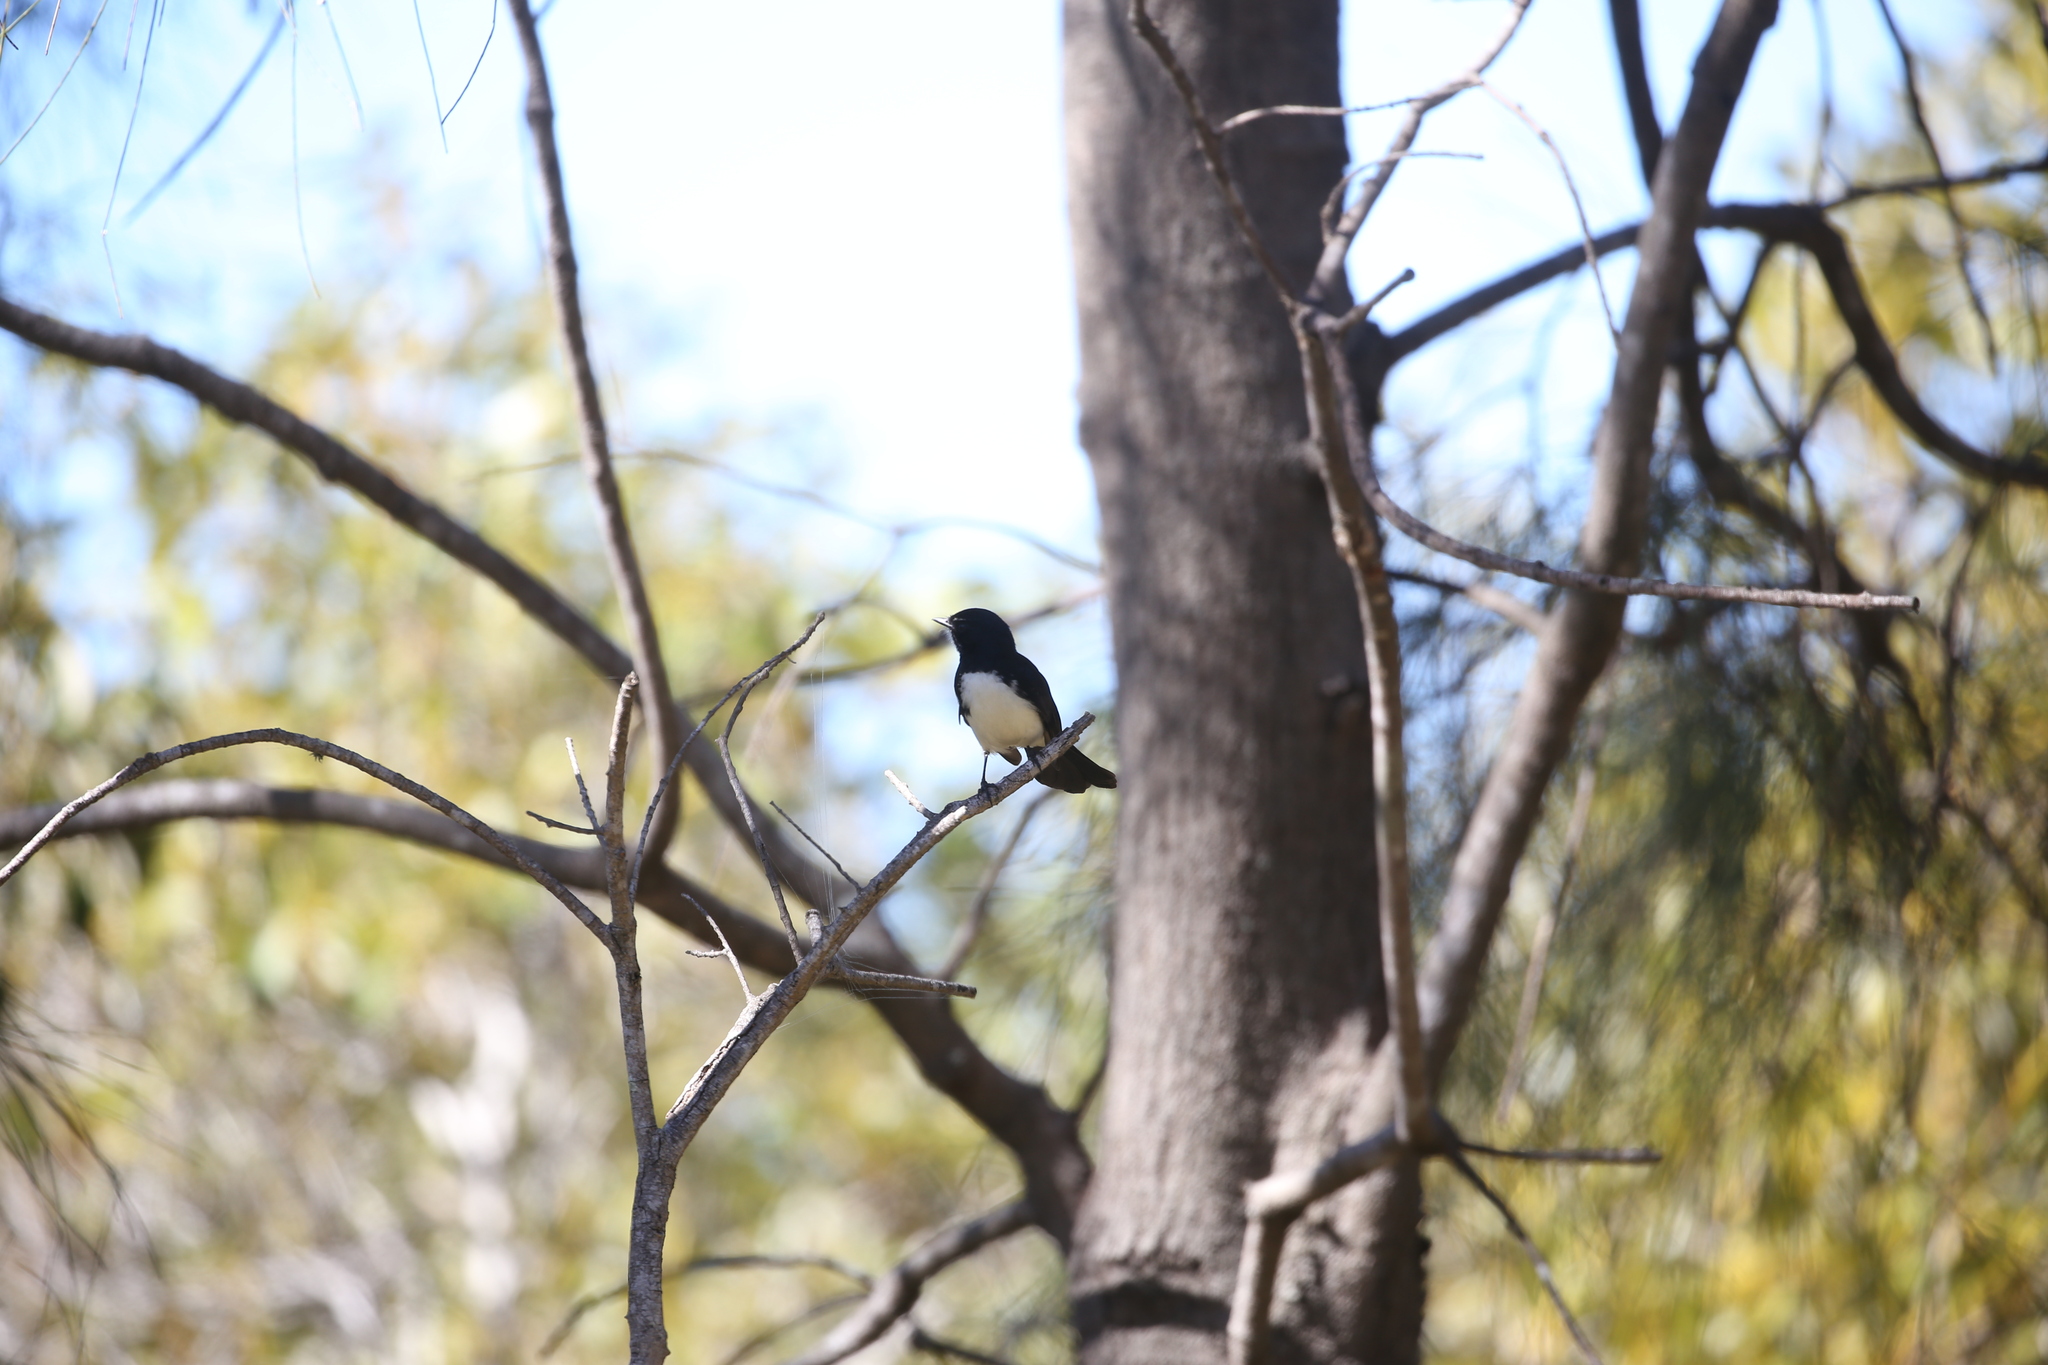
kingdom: Animalia
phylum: Chordata
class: Aves
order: Passeriformes
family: Rhipiduridae
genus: Rhipidura
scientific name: Rhipidura leucophrys
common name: Willie wagtail
